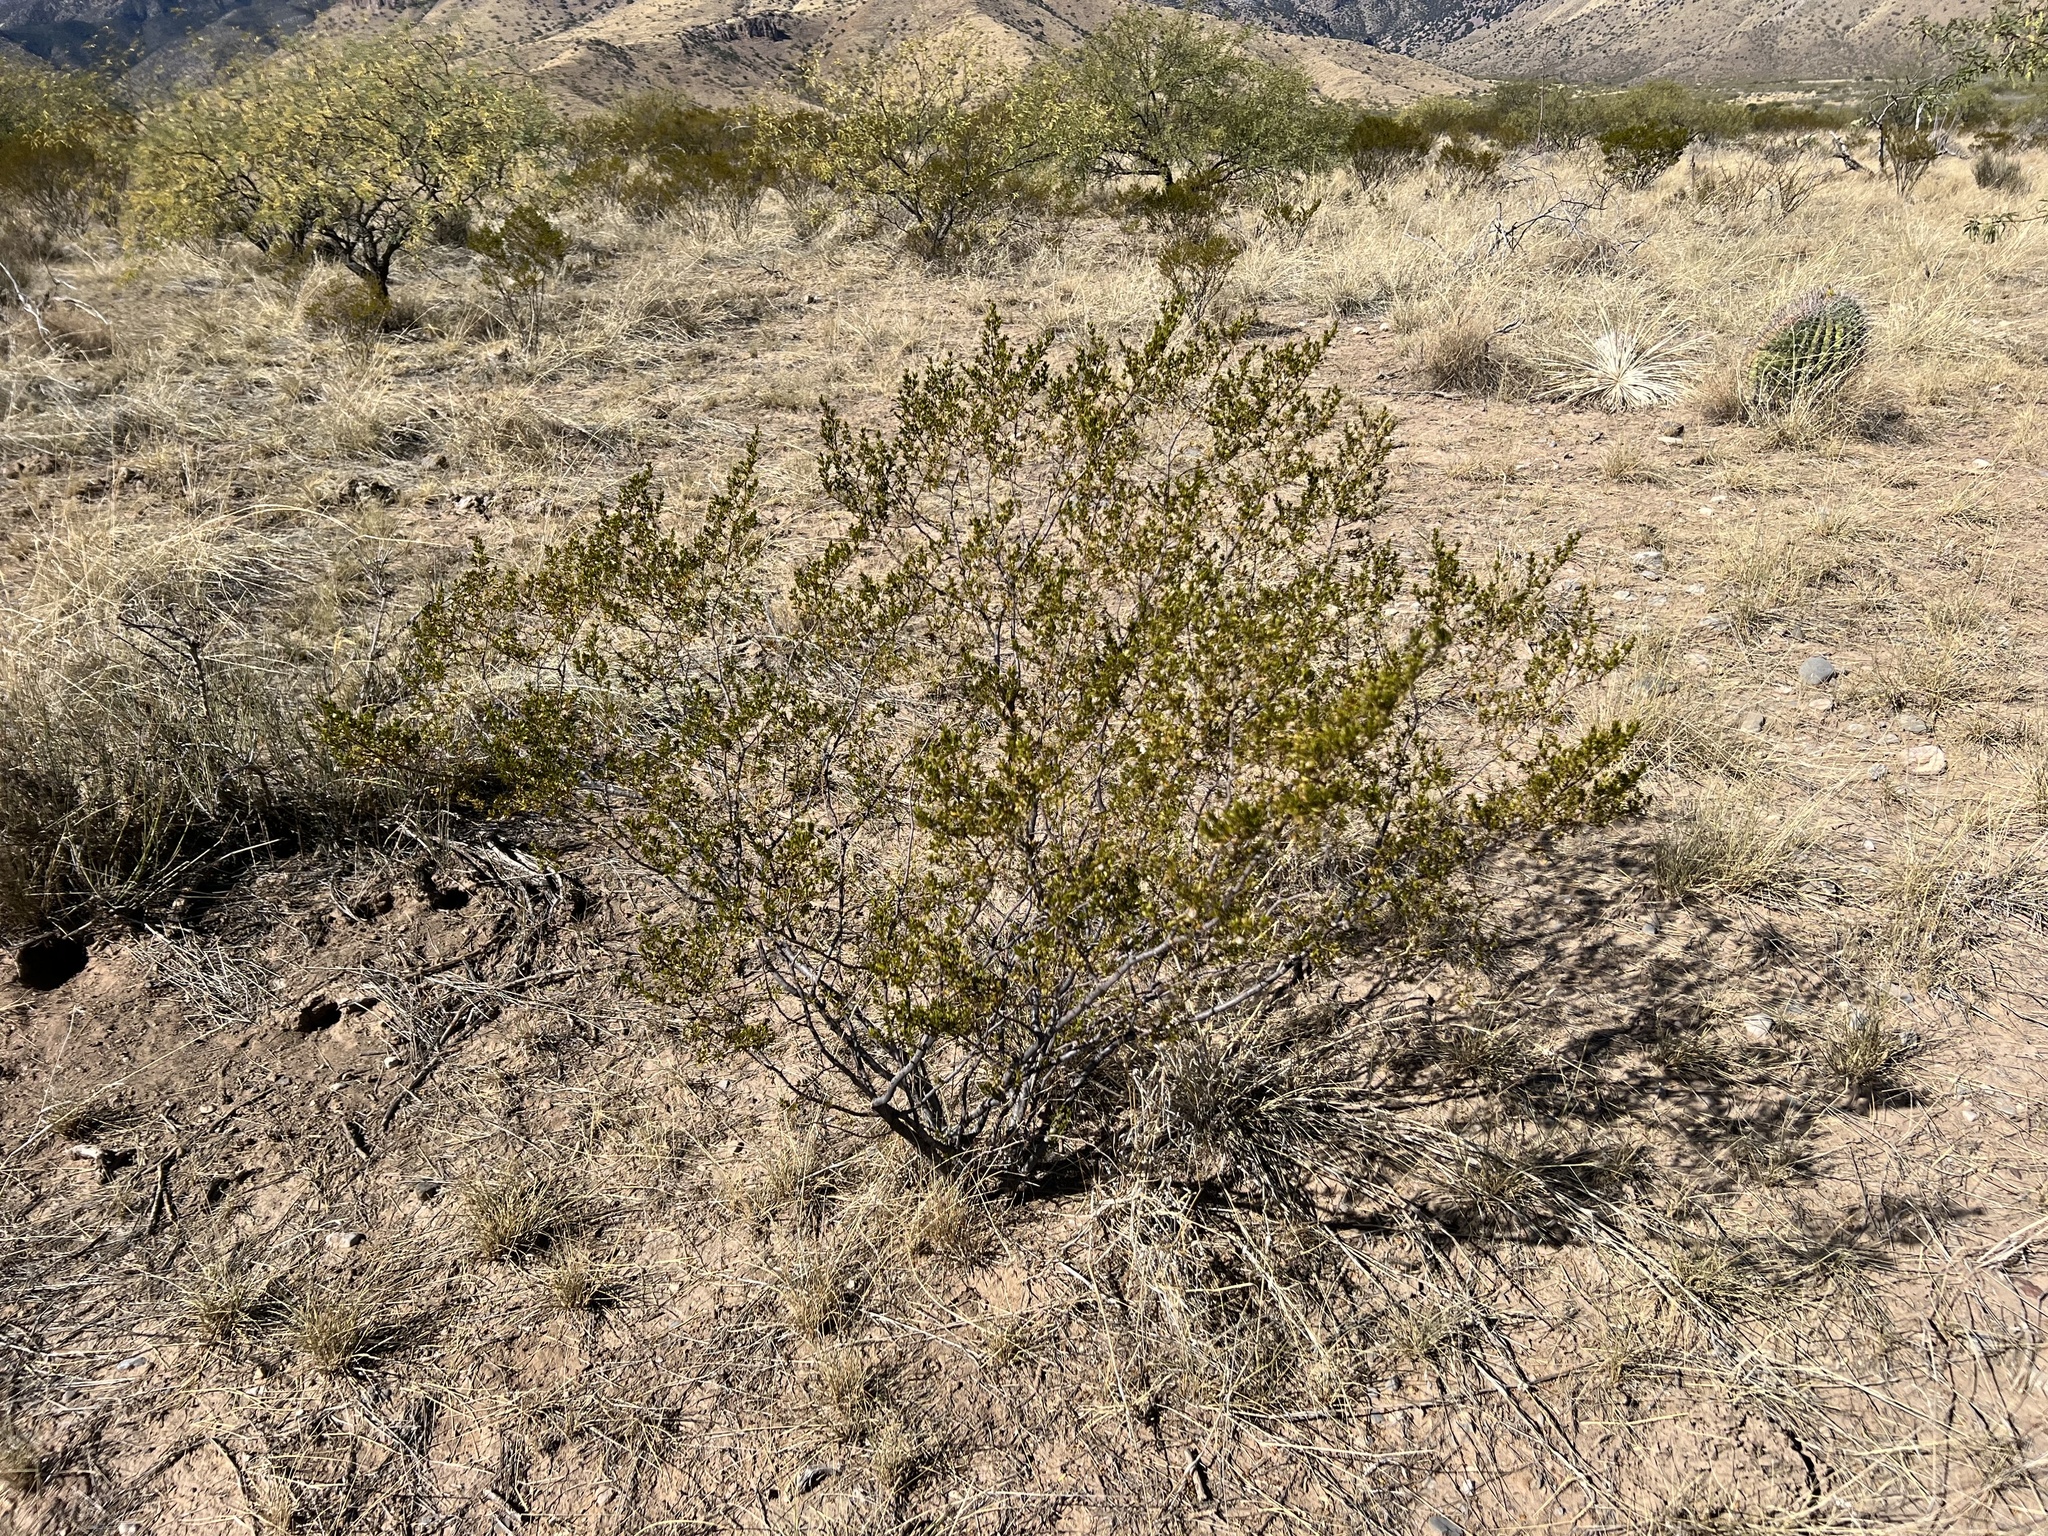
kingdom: Plantae
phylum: Tracheophyta
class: Magnoliopsida
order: Zygophyllales
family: Zygophyllaceae
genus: Larrea
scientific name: Larrea tridentata
